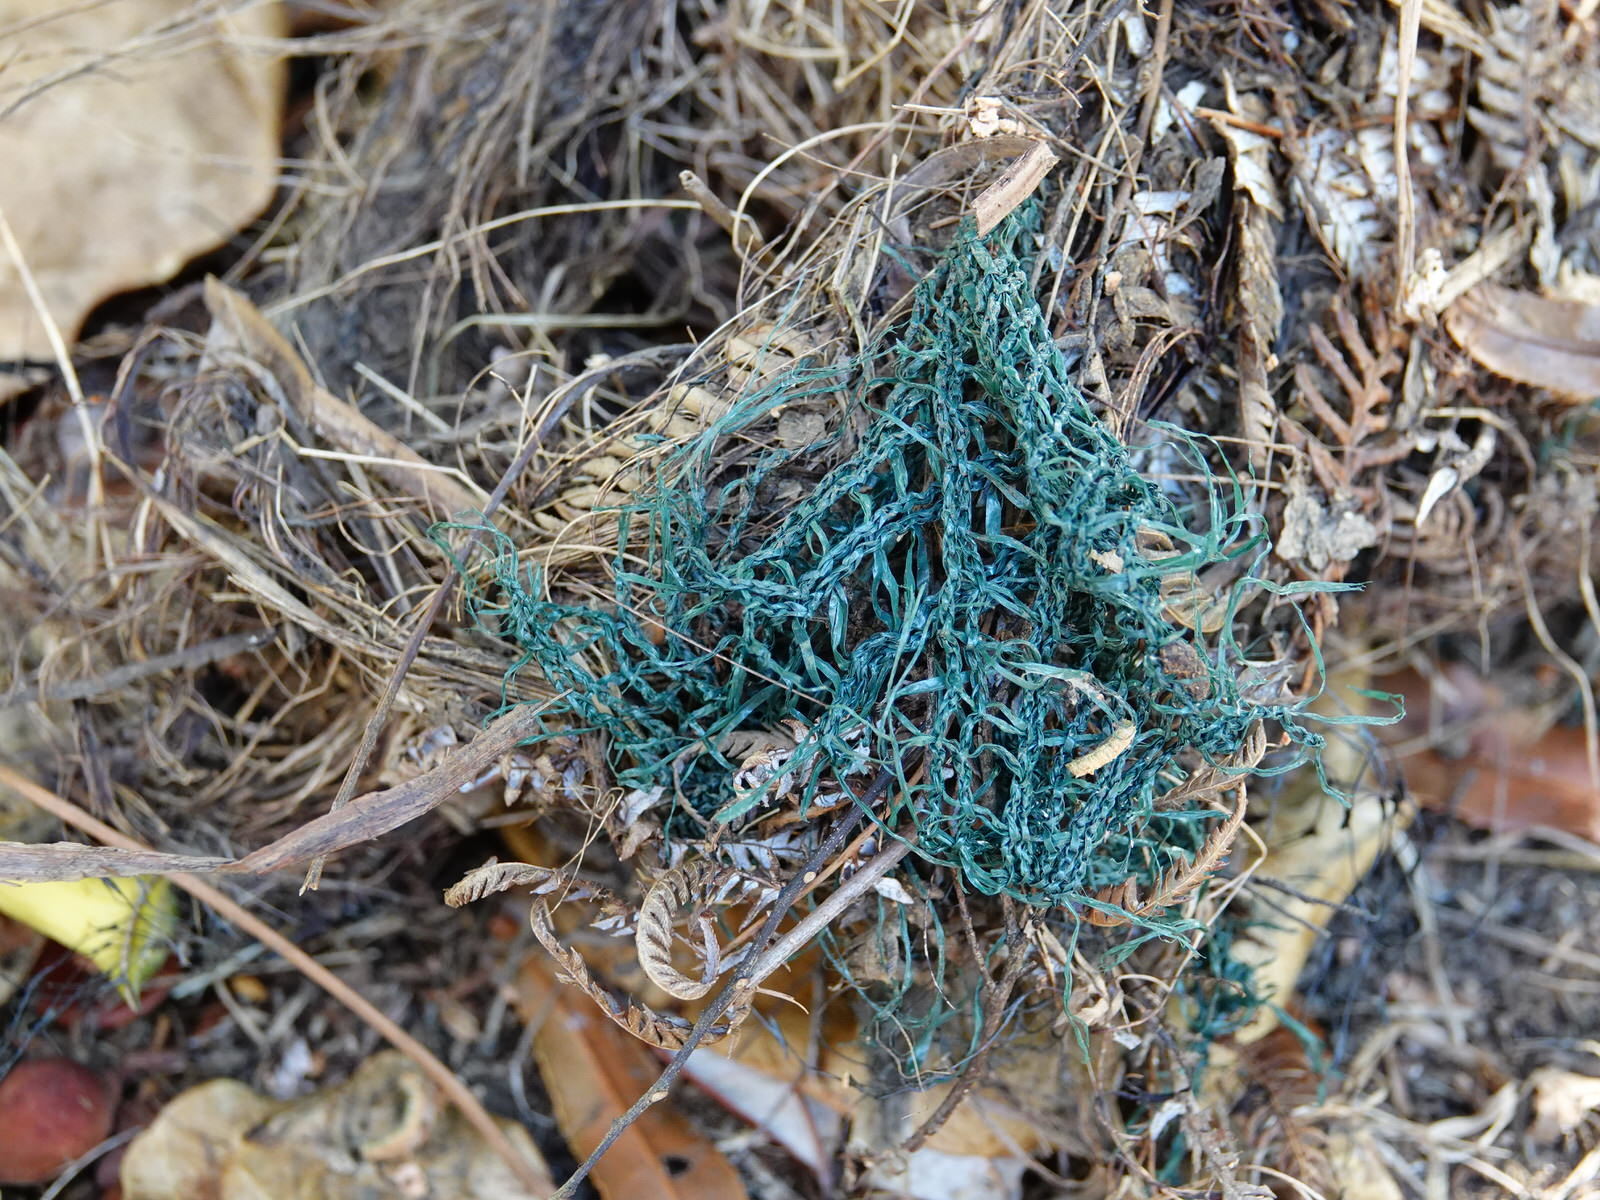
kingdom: Animalia
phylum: Chordata
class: Aves
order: Passeriformes
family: Turdidae
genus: Turdus
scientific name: Turdus merula
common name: Common blackbird
